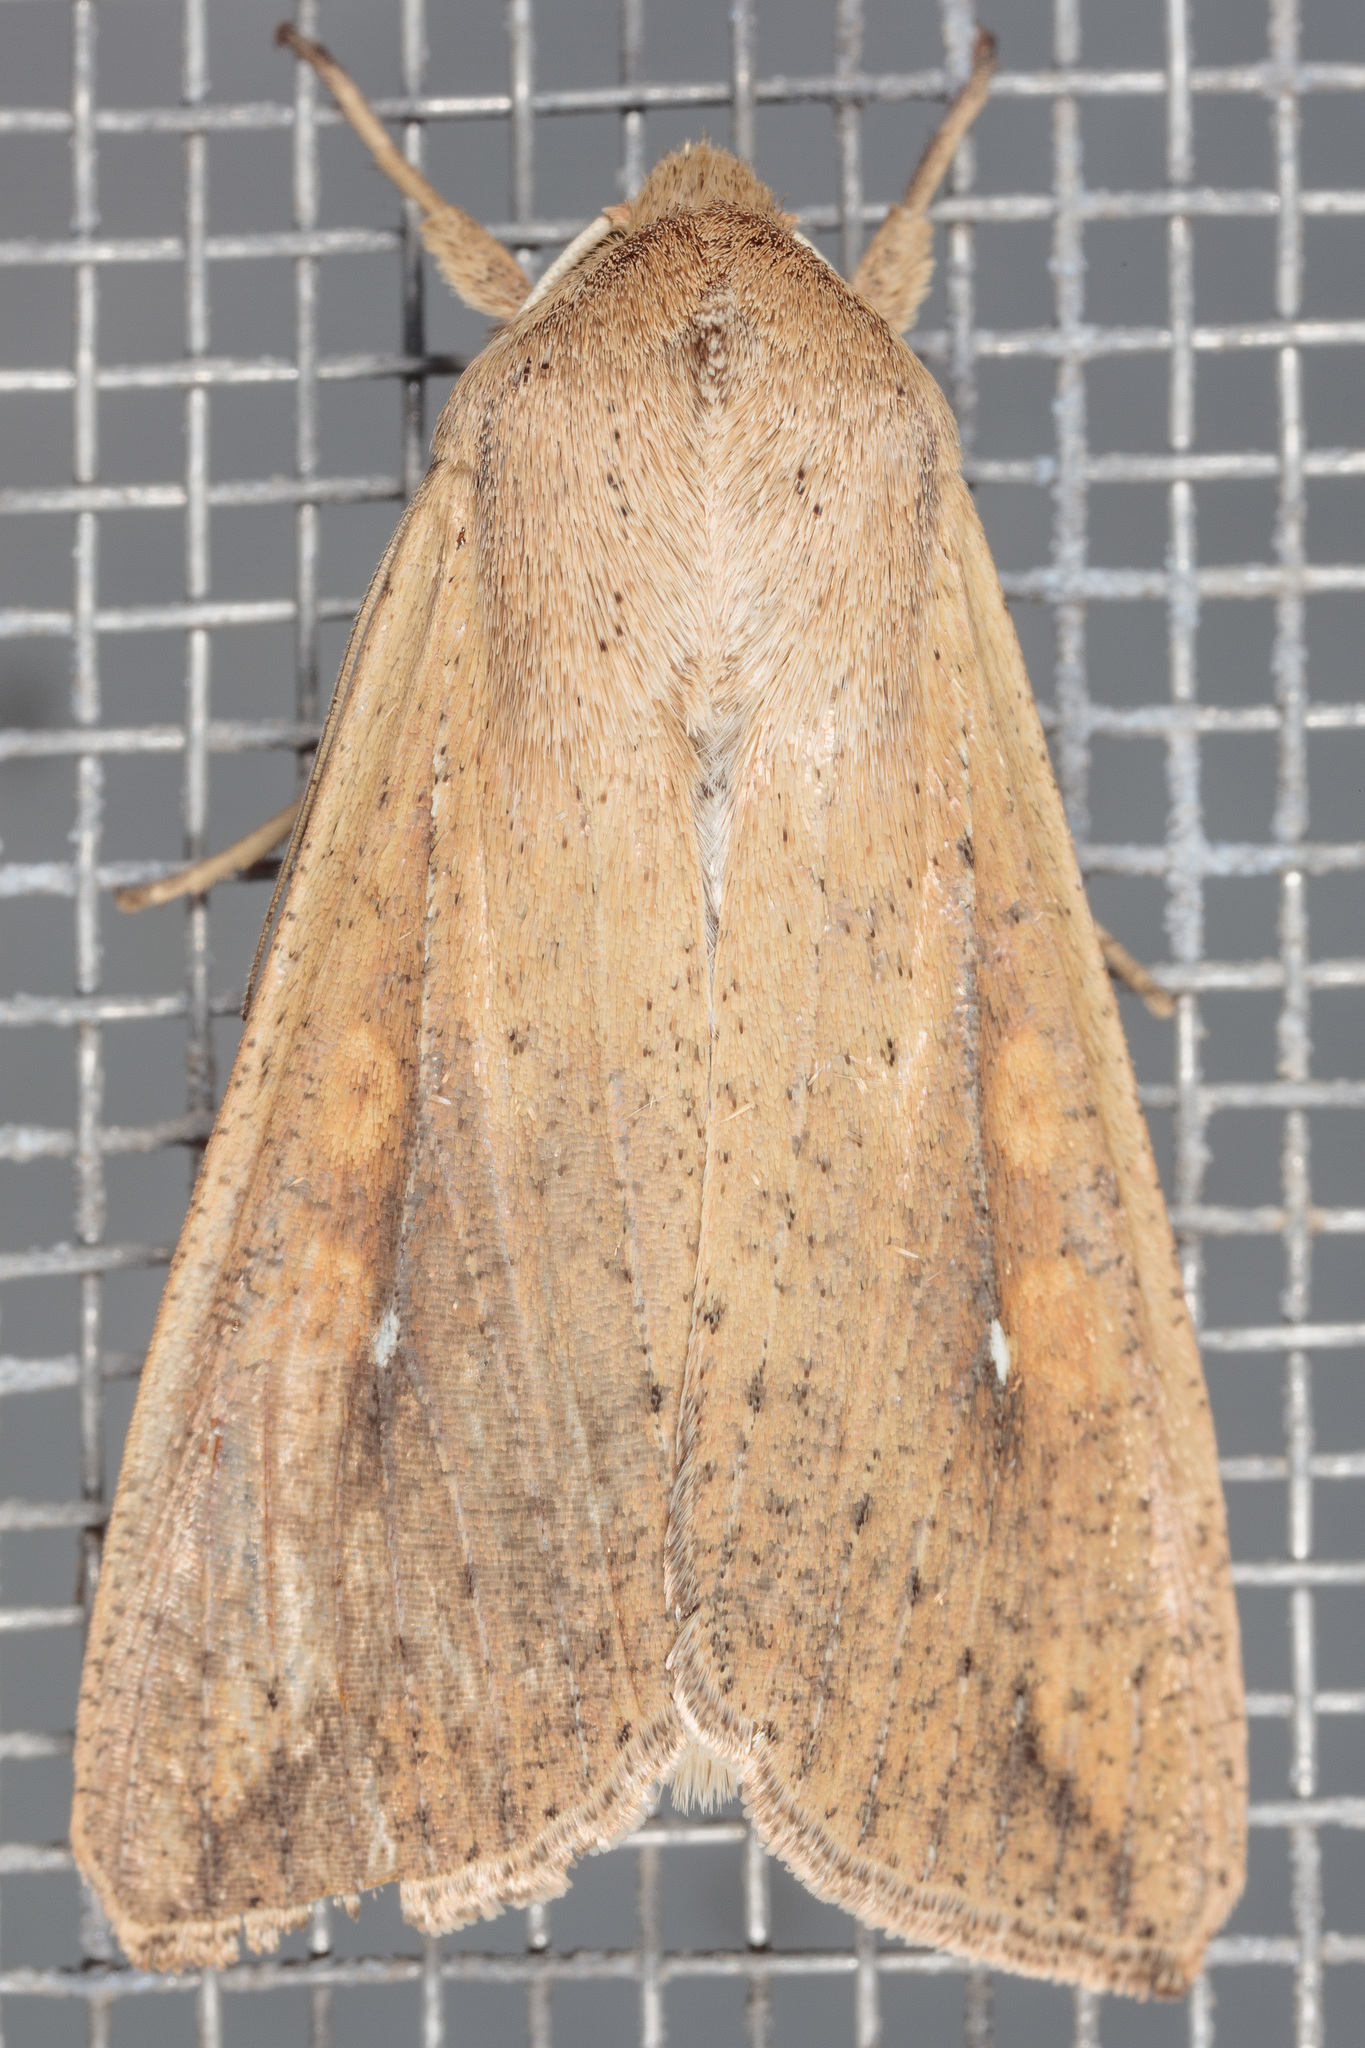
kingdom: Animalia
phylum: Arthropoda
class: Insecta
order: Lepidoptera
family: Noctuidae
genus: Mythimna
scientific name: Mythimna unipuncta
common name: White-speck
